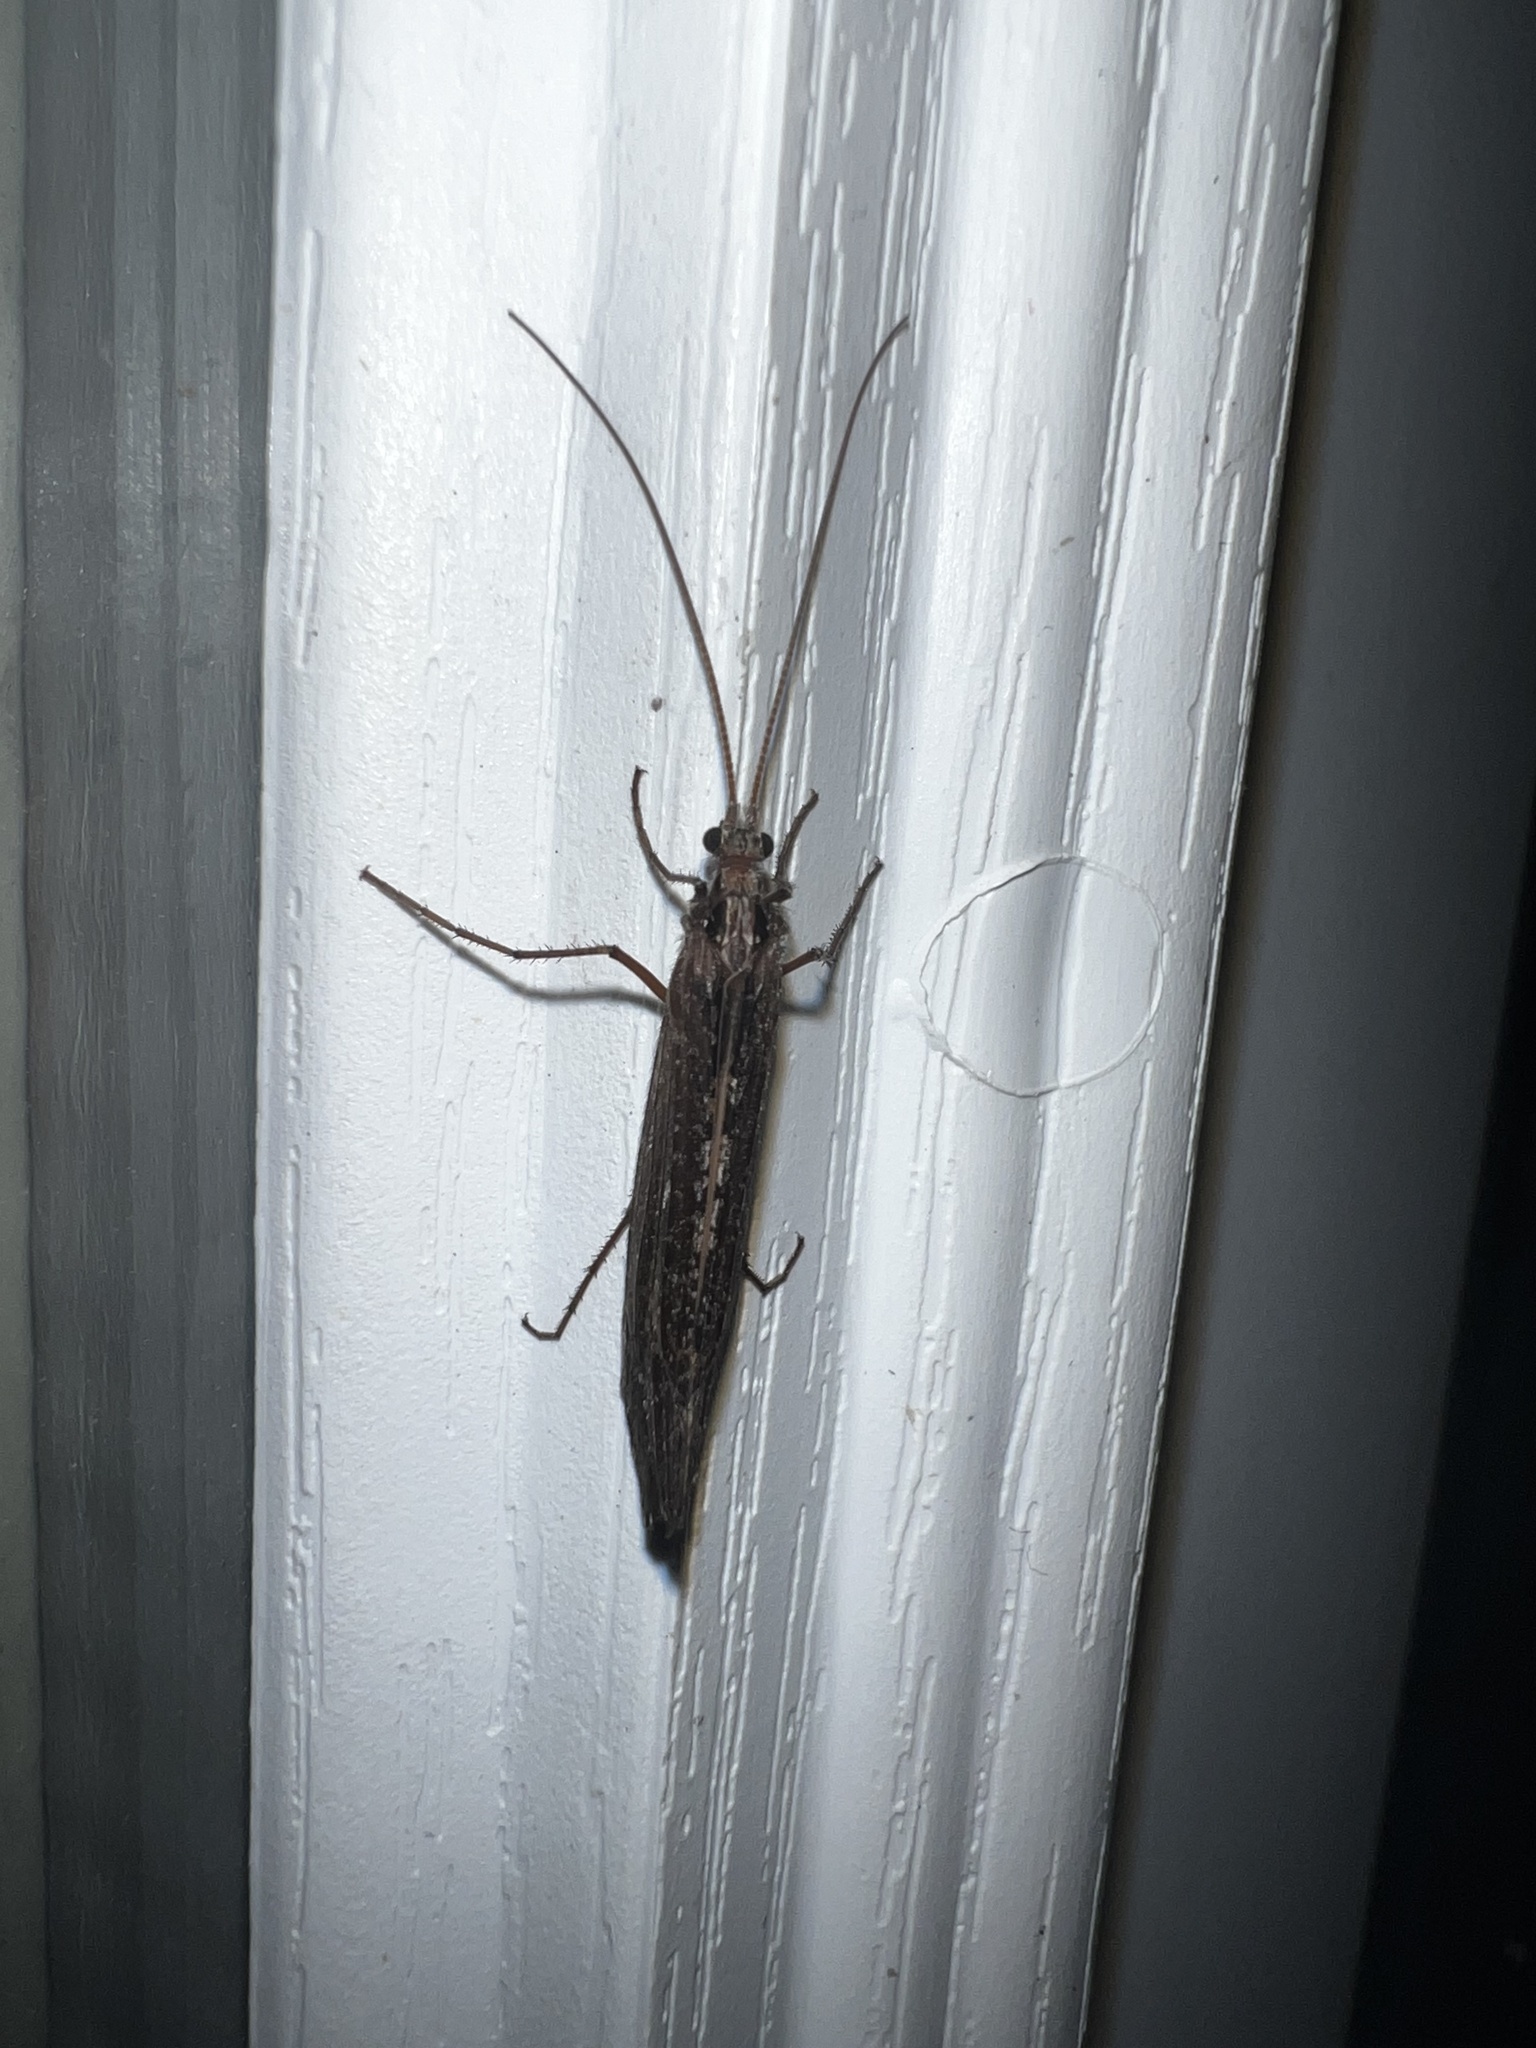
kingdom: Animalia
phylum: Arthropoda
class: Insecta
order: Trichoptera
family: Limnephilidae
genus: Glyphopsyche
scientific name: Glyphopsyche irrorata
